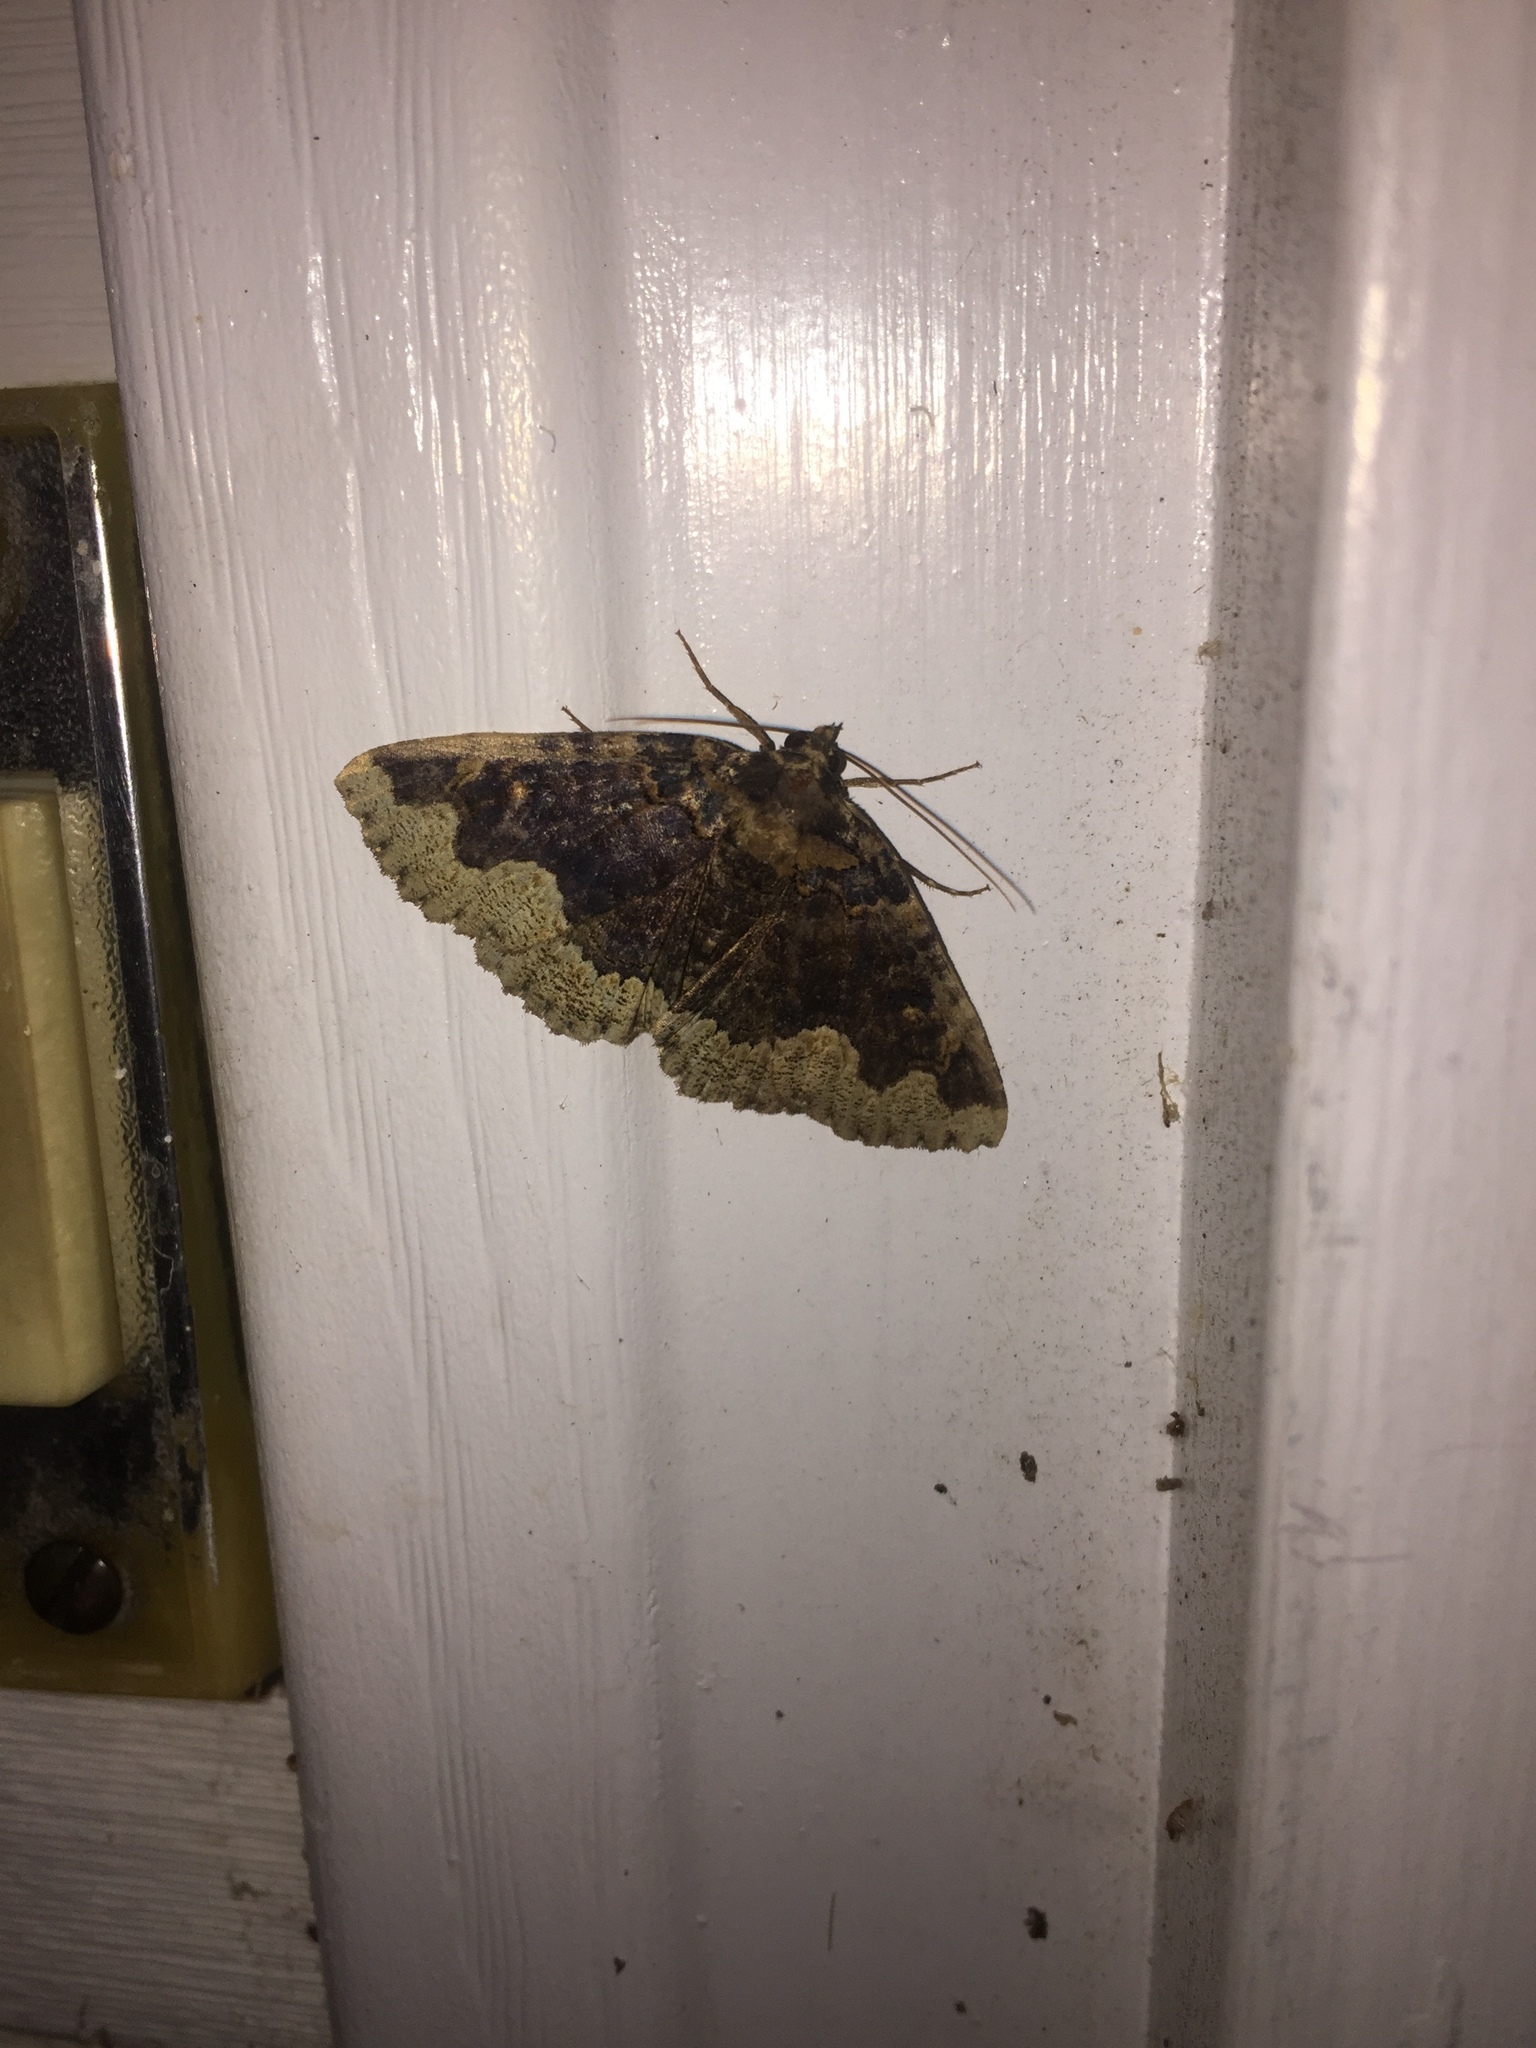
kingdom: Animalia
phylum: Arthropoda
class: Insecta
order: Lepidoptera
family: Erebidae
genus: Zale
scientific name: Zale horrida
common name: Horrid zale moth
